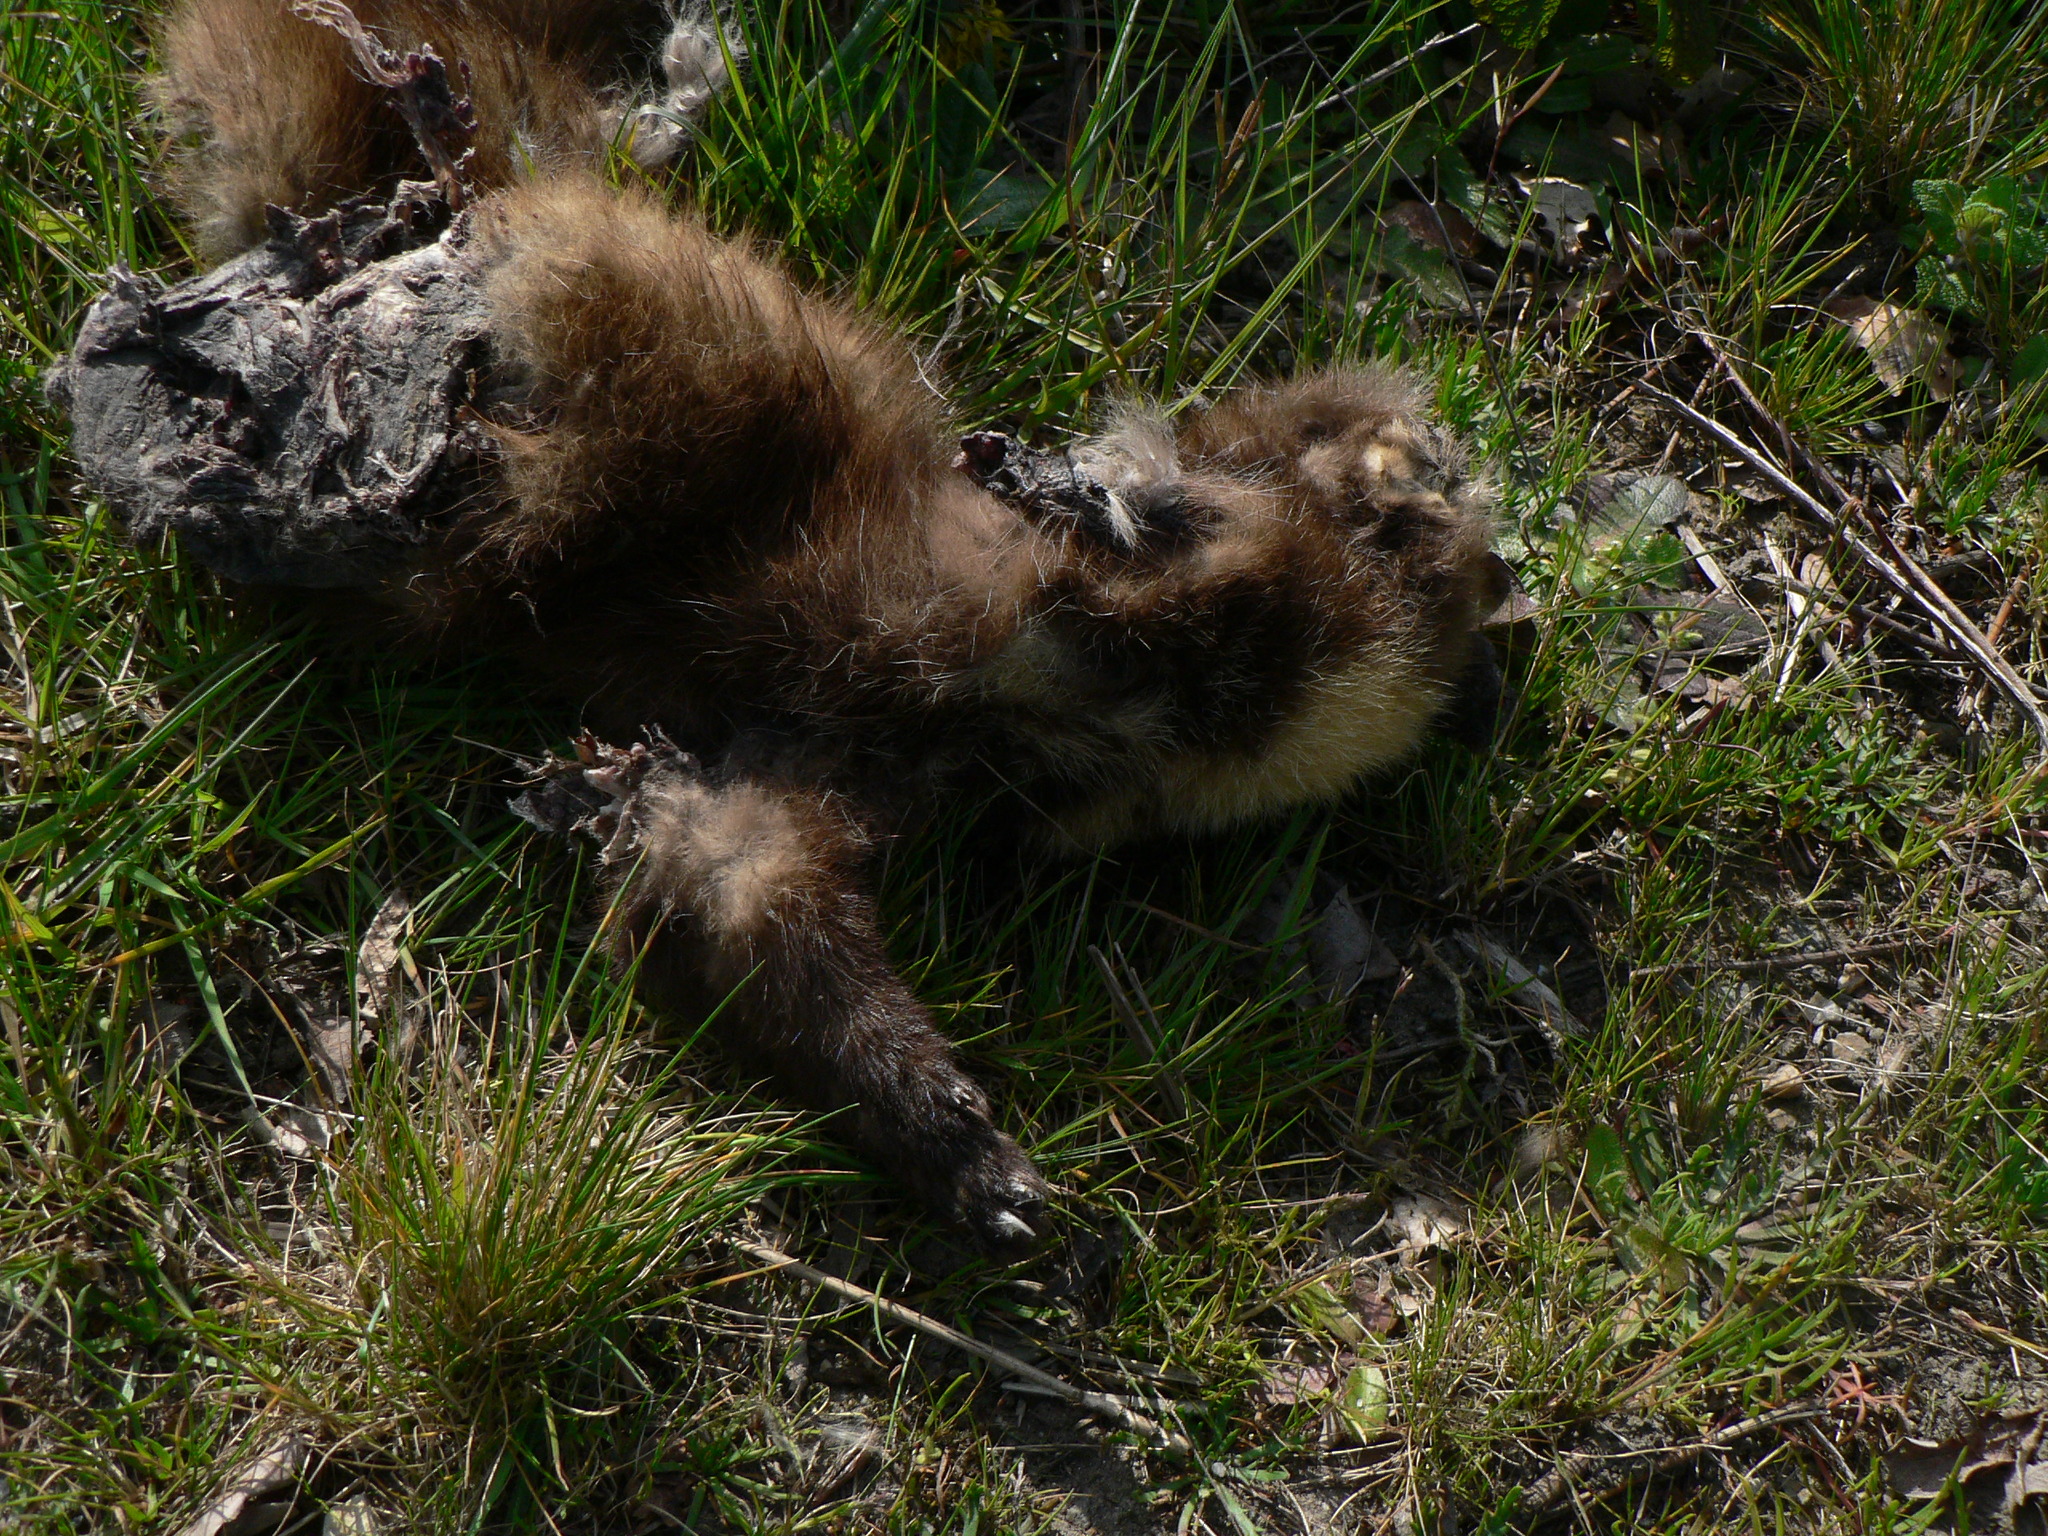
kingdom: Animalia
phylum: Chordata
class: Mammalia
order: Carnivora
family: Mustelidae
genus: Martes
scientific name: Martes martes
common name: European pine marten
